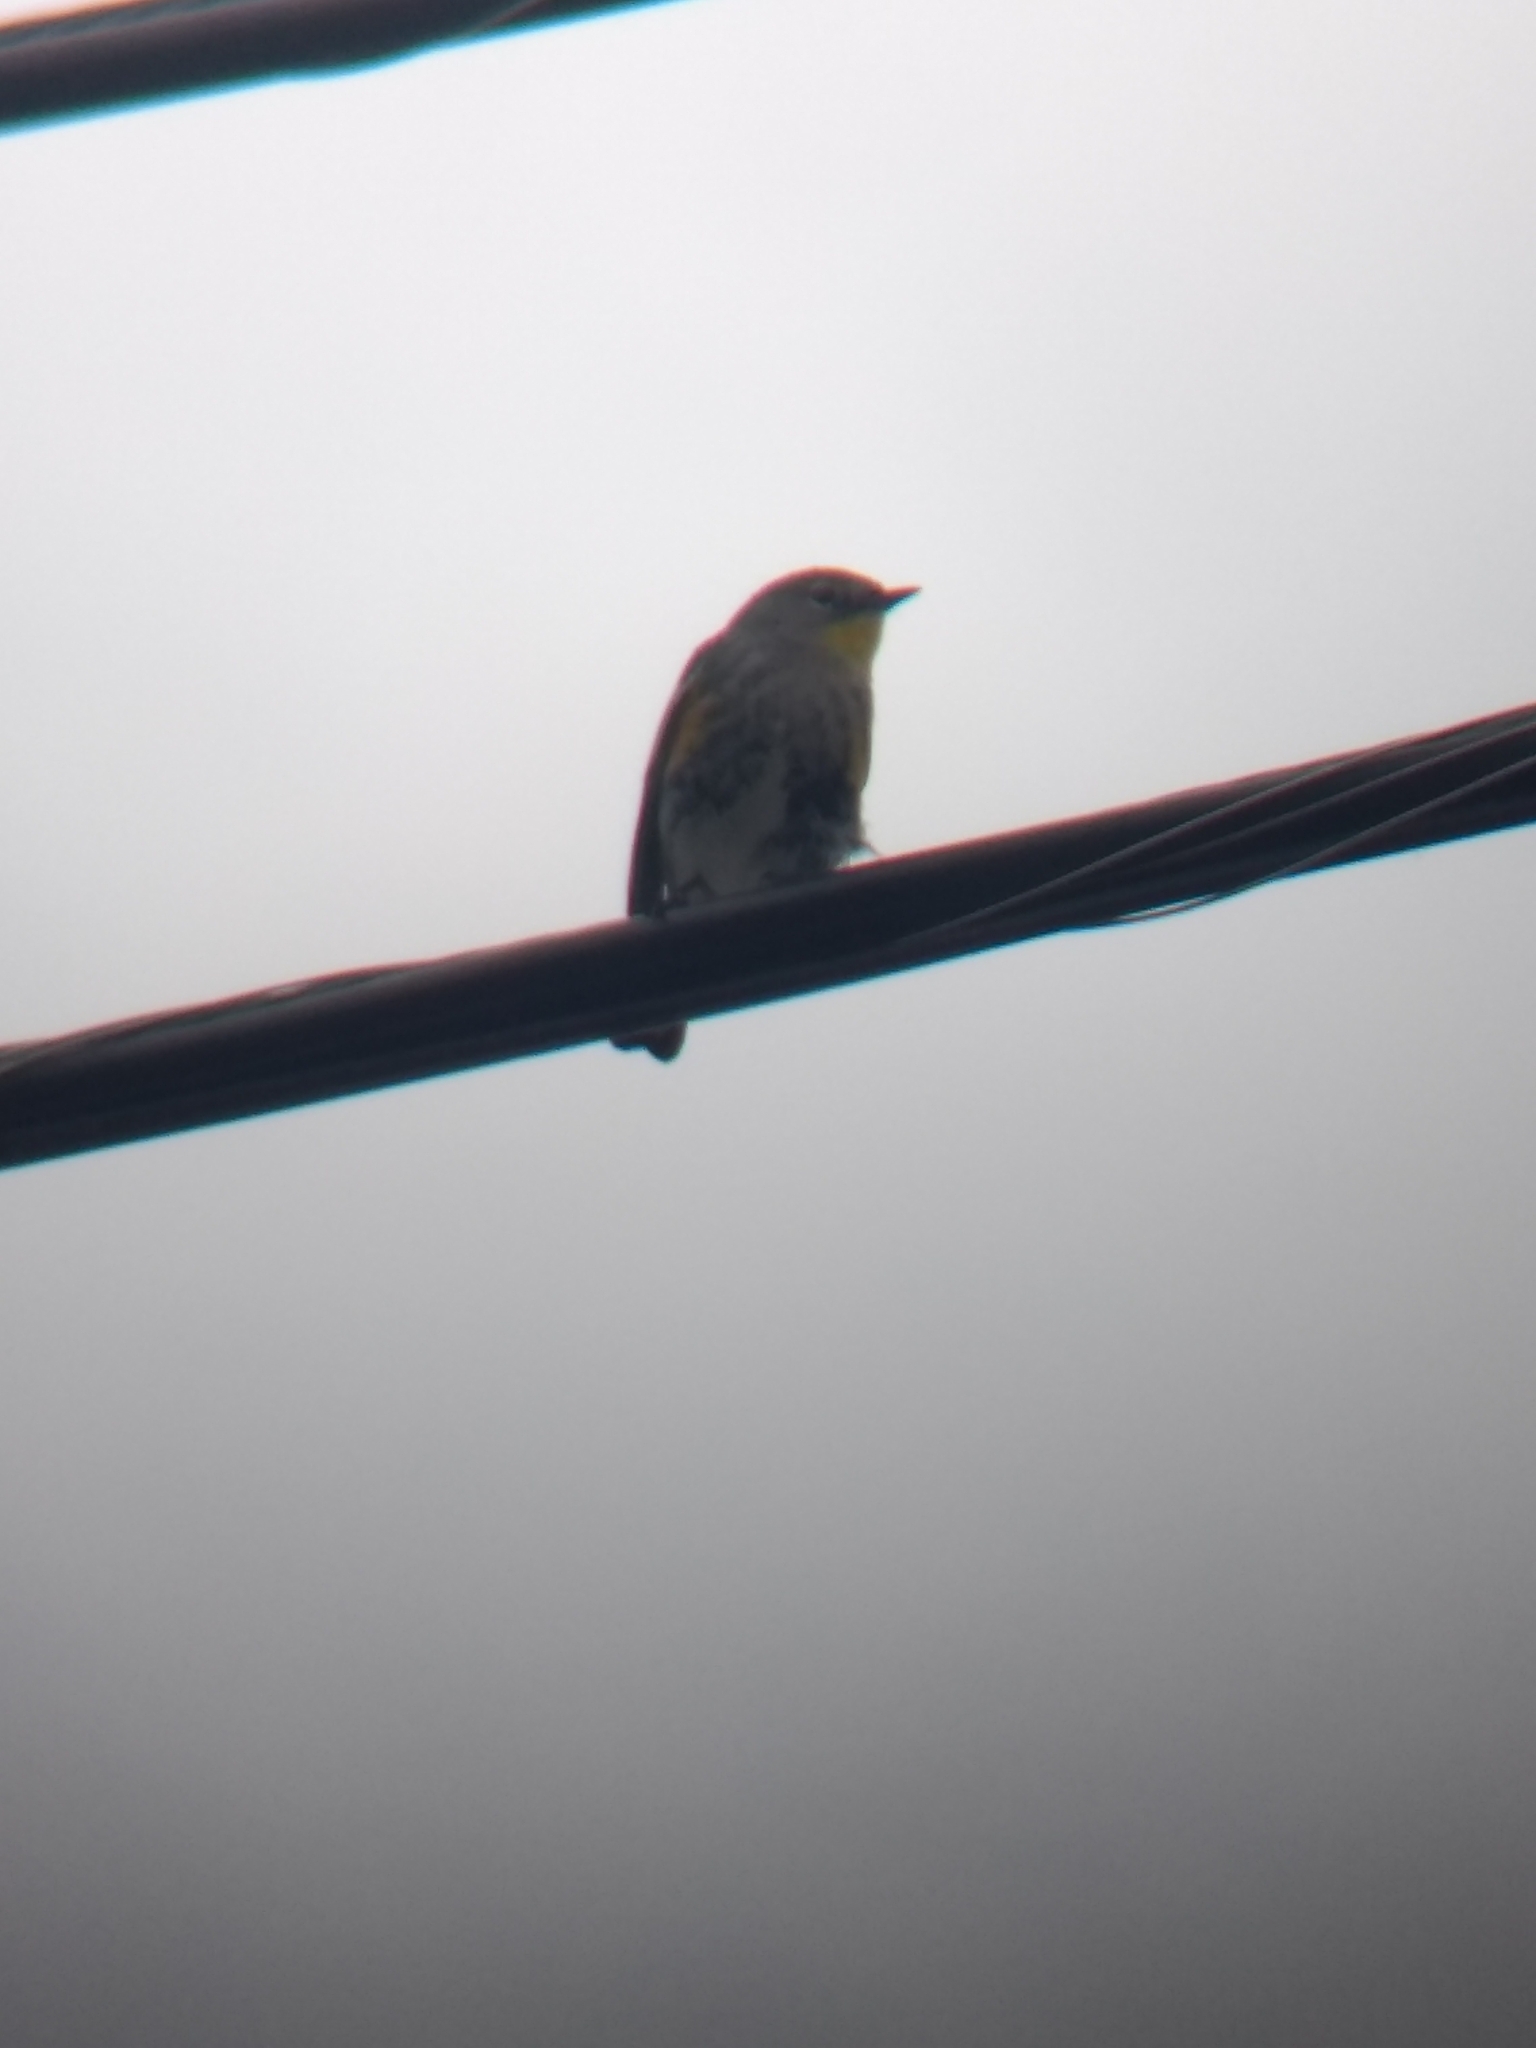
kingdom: Animalia
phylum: Chordata
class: Aves
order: Passeriformes
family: Parulidae
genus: Setophaga
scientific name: Setophaga coronata
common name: Myrtle warbler
